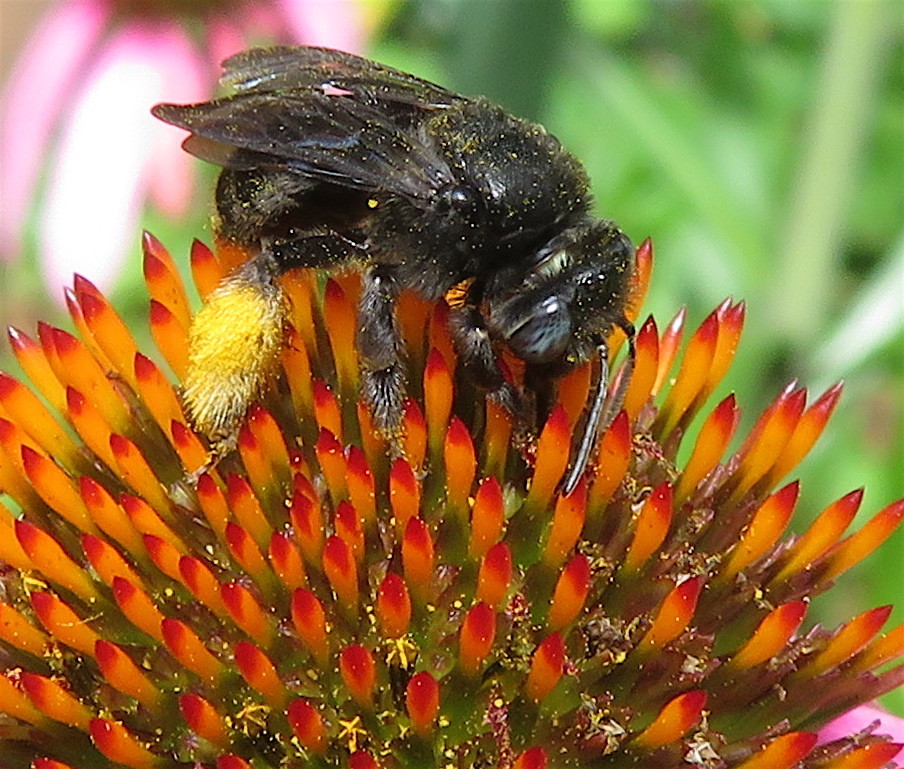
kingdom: Animalia
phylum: Arthropoda
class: Insecta
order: Hymenoptera
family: Apidae
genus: Melissodes
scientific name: Melissodes bimaculatus
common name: Two-spotted long-horned bee
